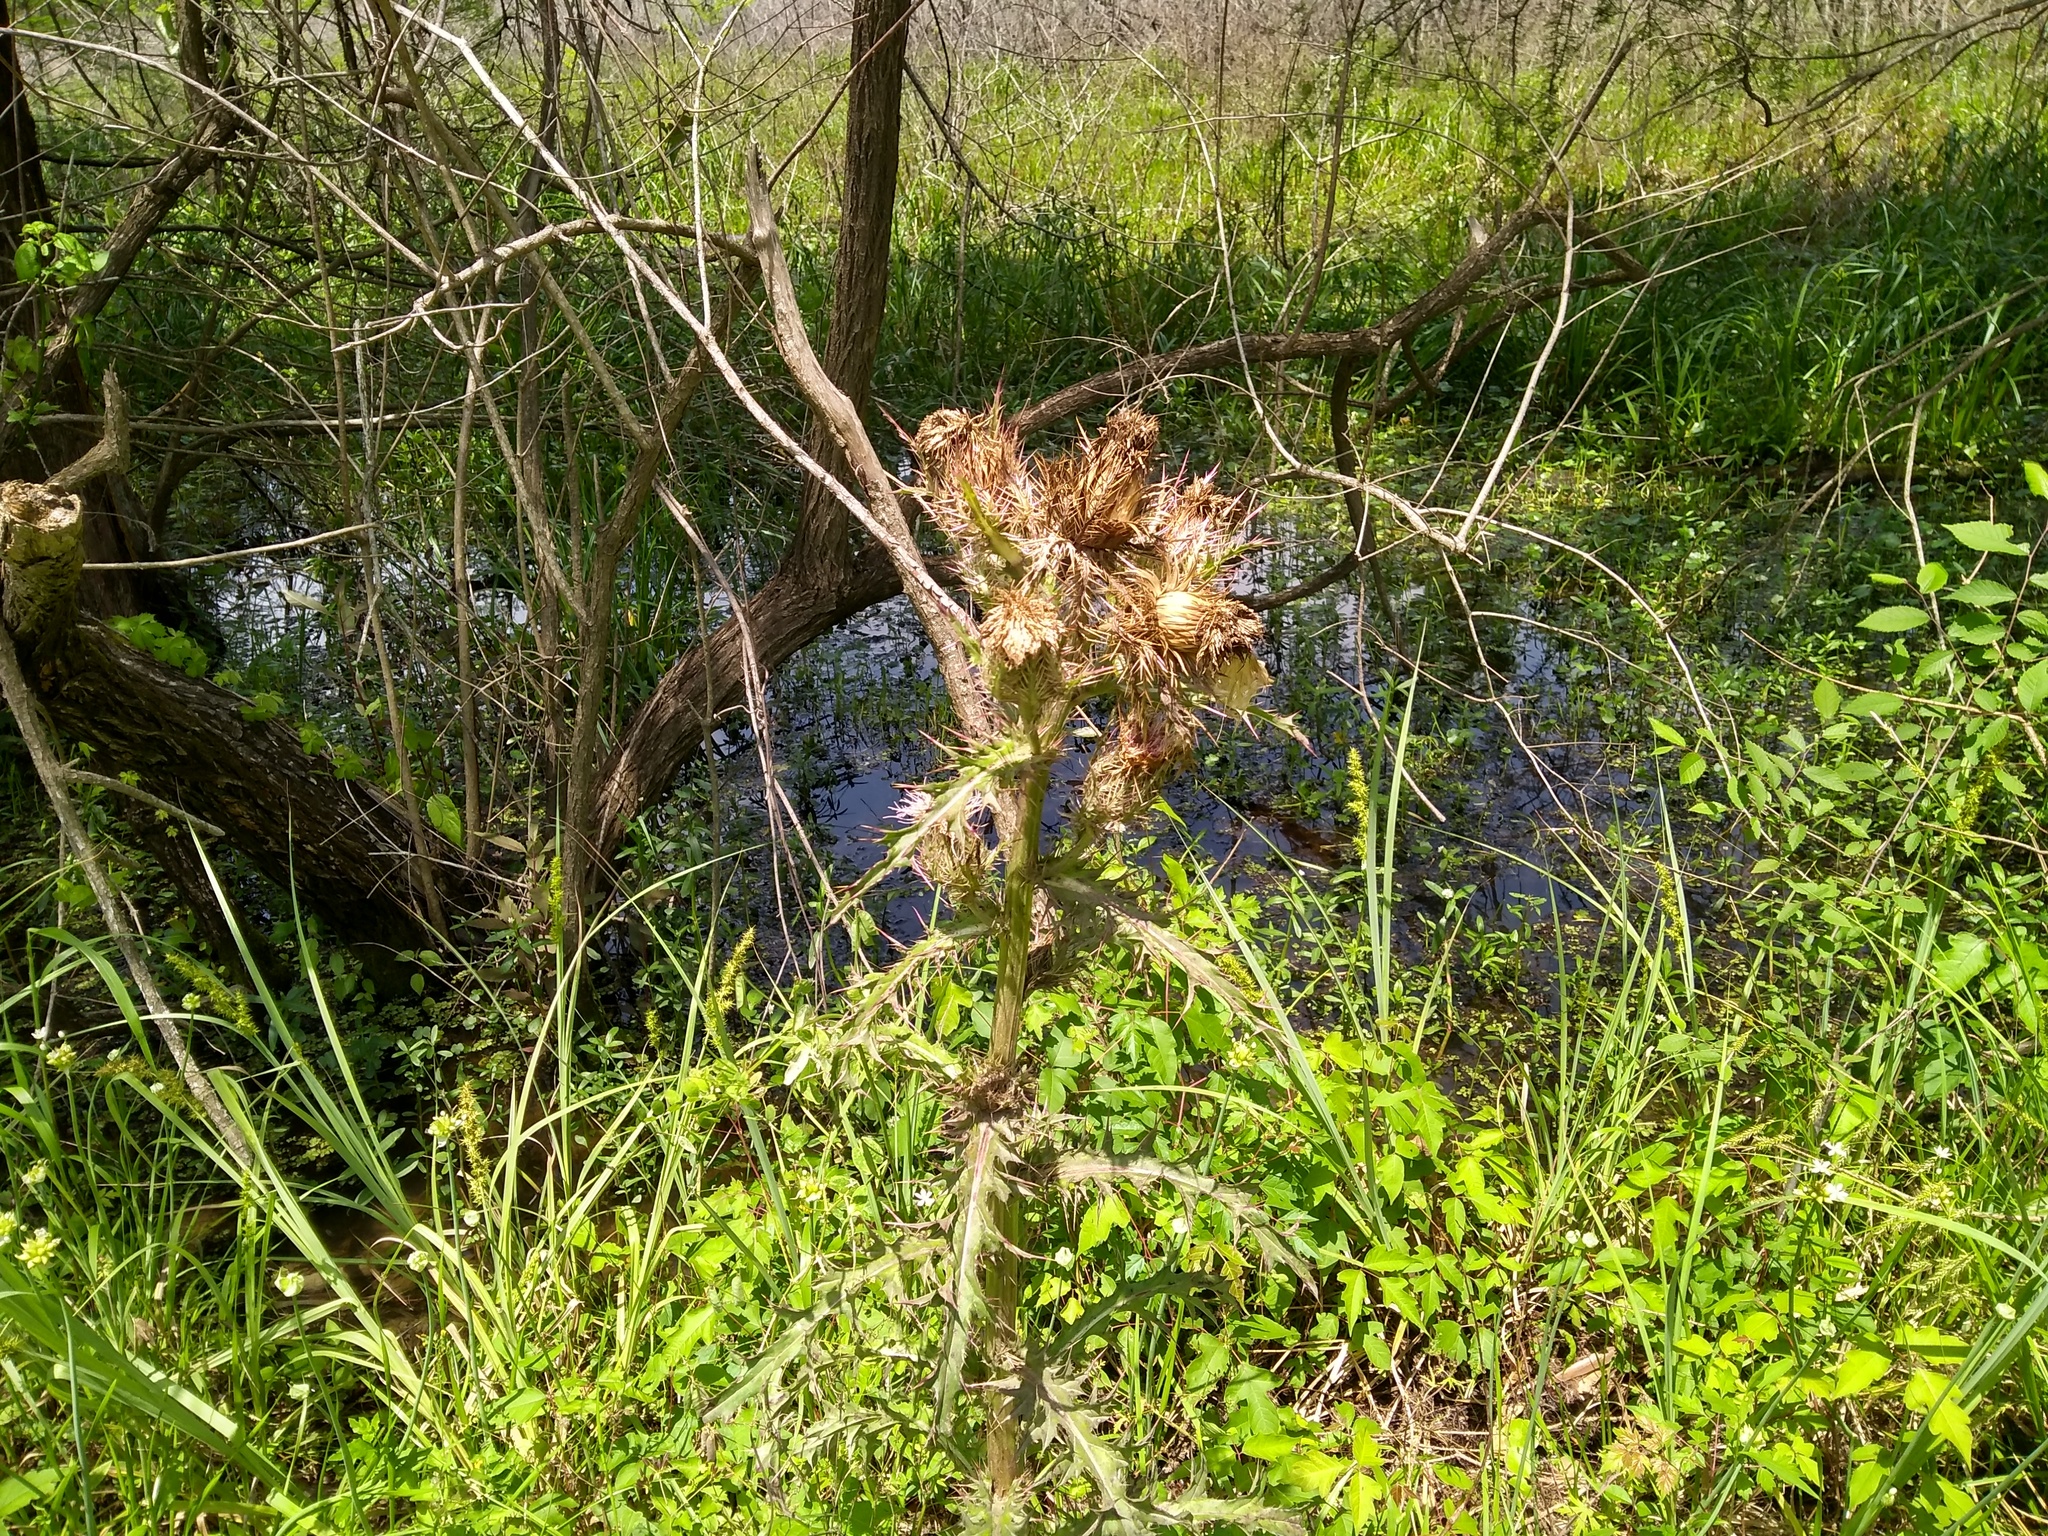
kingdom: Plantae
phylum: Tracheophyta
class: Magnoliopsida
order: Asterales
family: Asteraceae
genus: Cirsium
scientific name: Cirsium horridulum
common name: Bristly thistle
